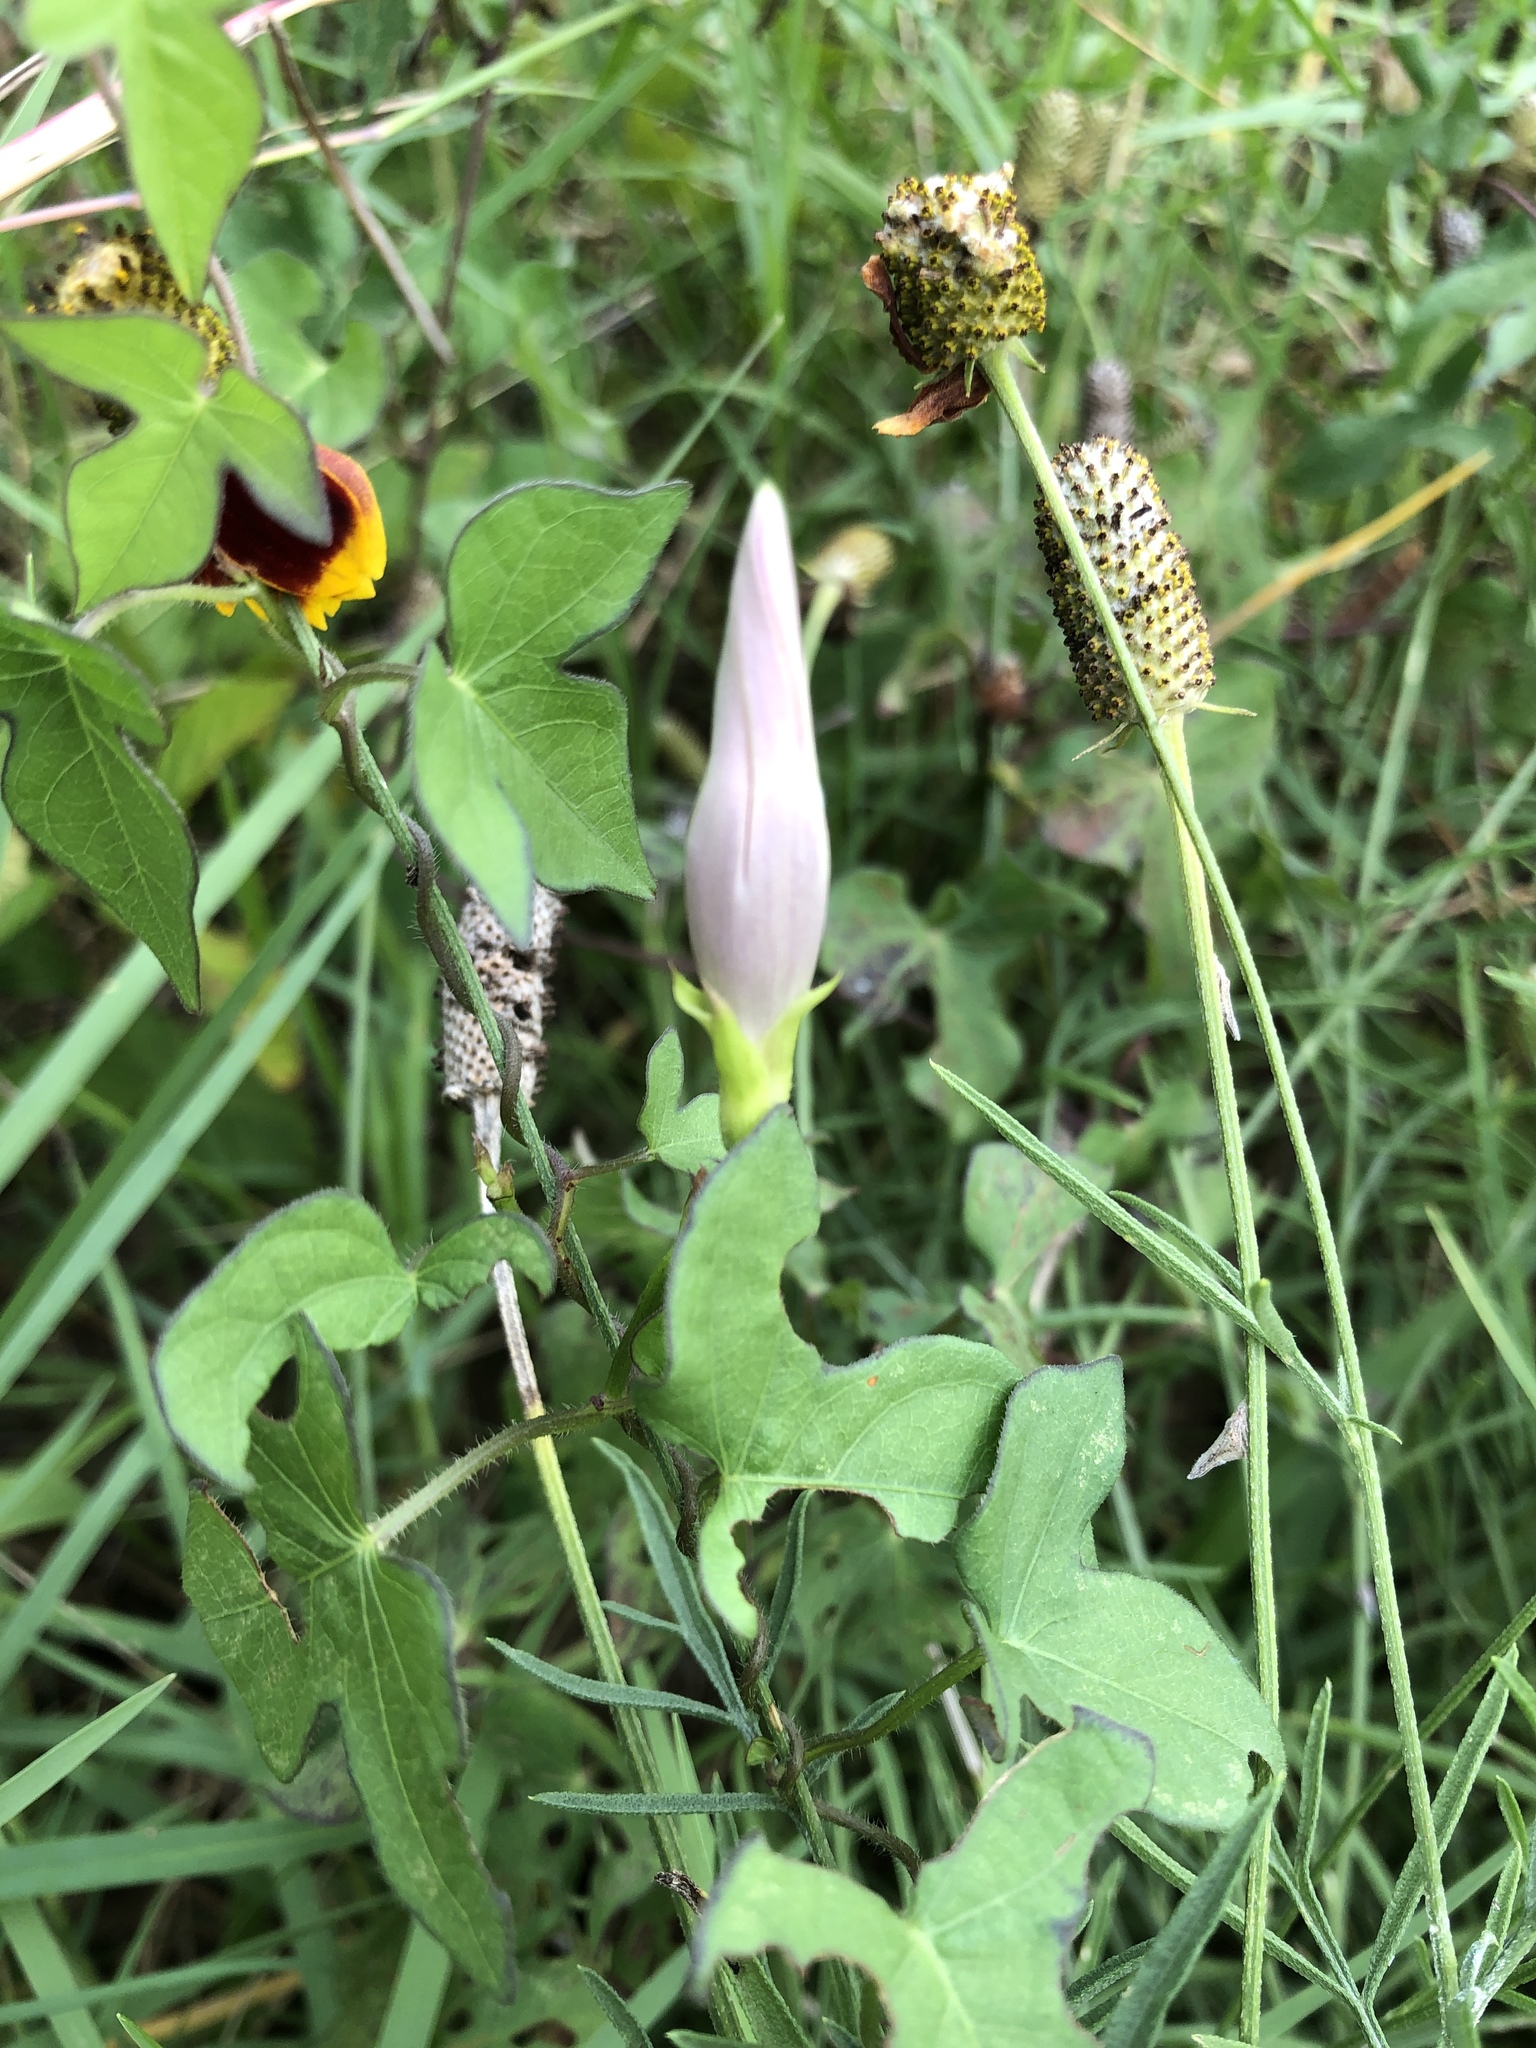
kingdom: Plantae
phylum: Tracheophyta
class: Magnoliopsida
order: Solanales
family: Convolvulaceae
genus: Ipomoea
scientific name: Ipomoea cordatotriloba
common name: Cotton morning glory
